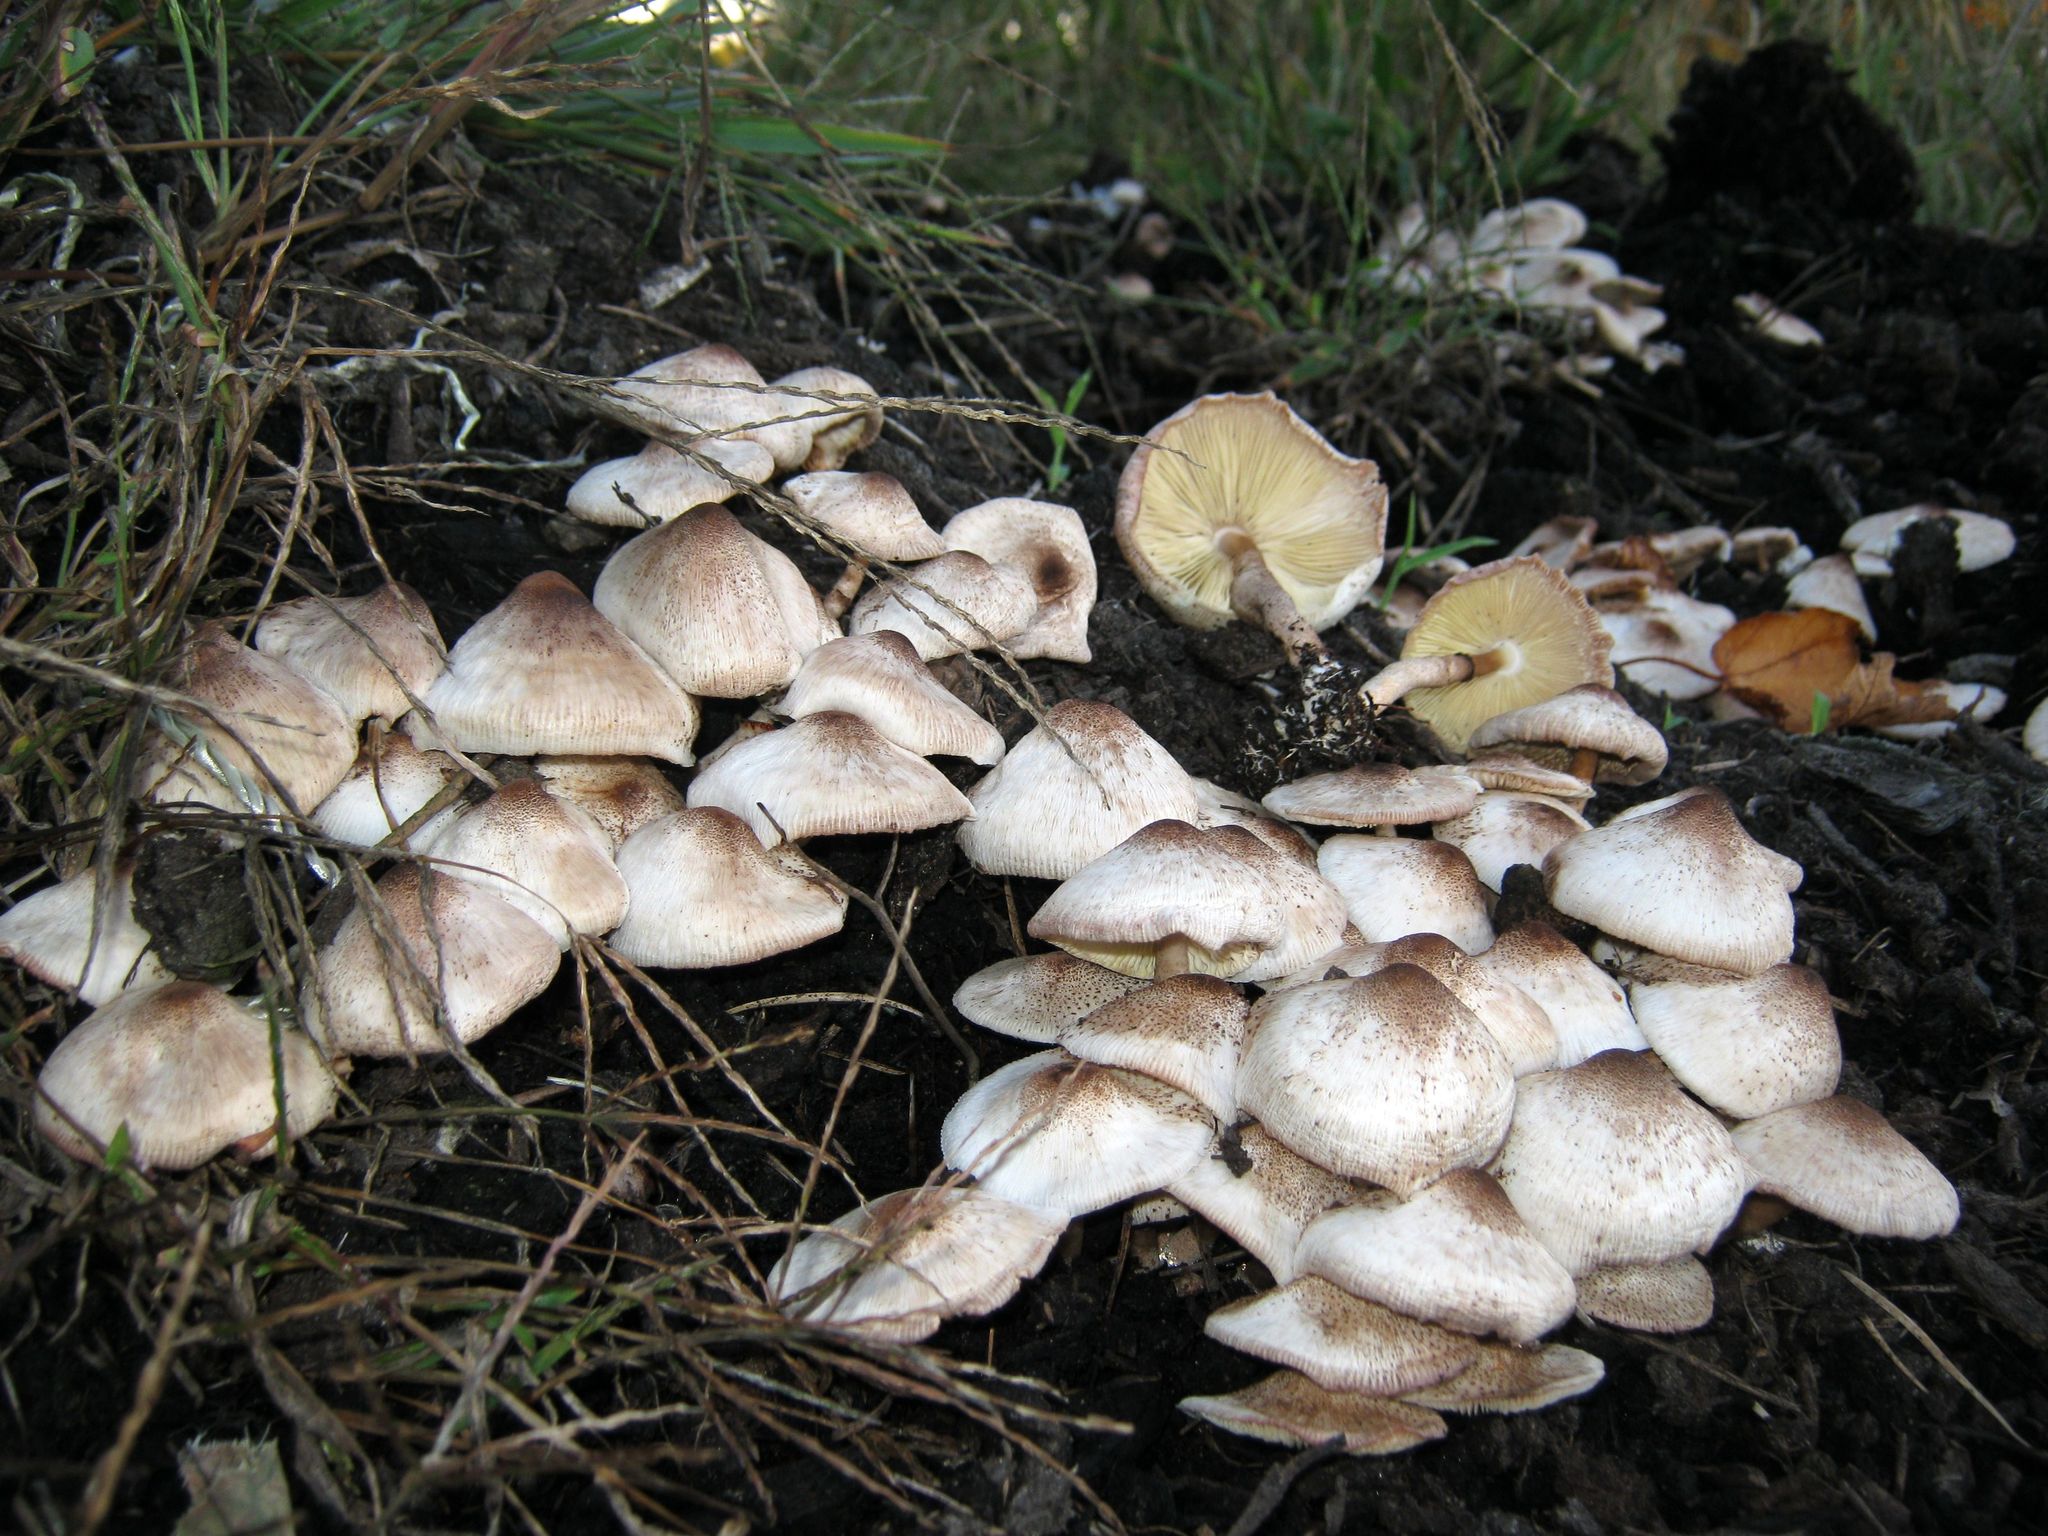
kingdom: Fungi
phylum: Basidiomycota
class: Agaricomycetes
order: Agaricales
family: Agaricaceae
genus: Leucoagaricus
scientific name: Leucoagaricus meleagris
